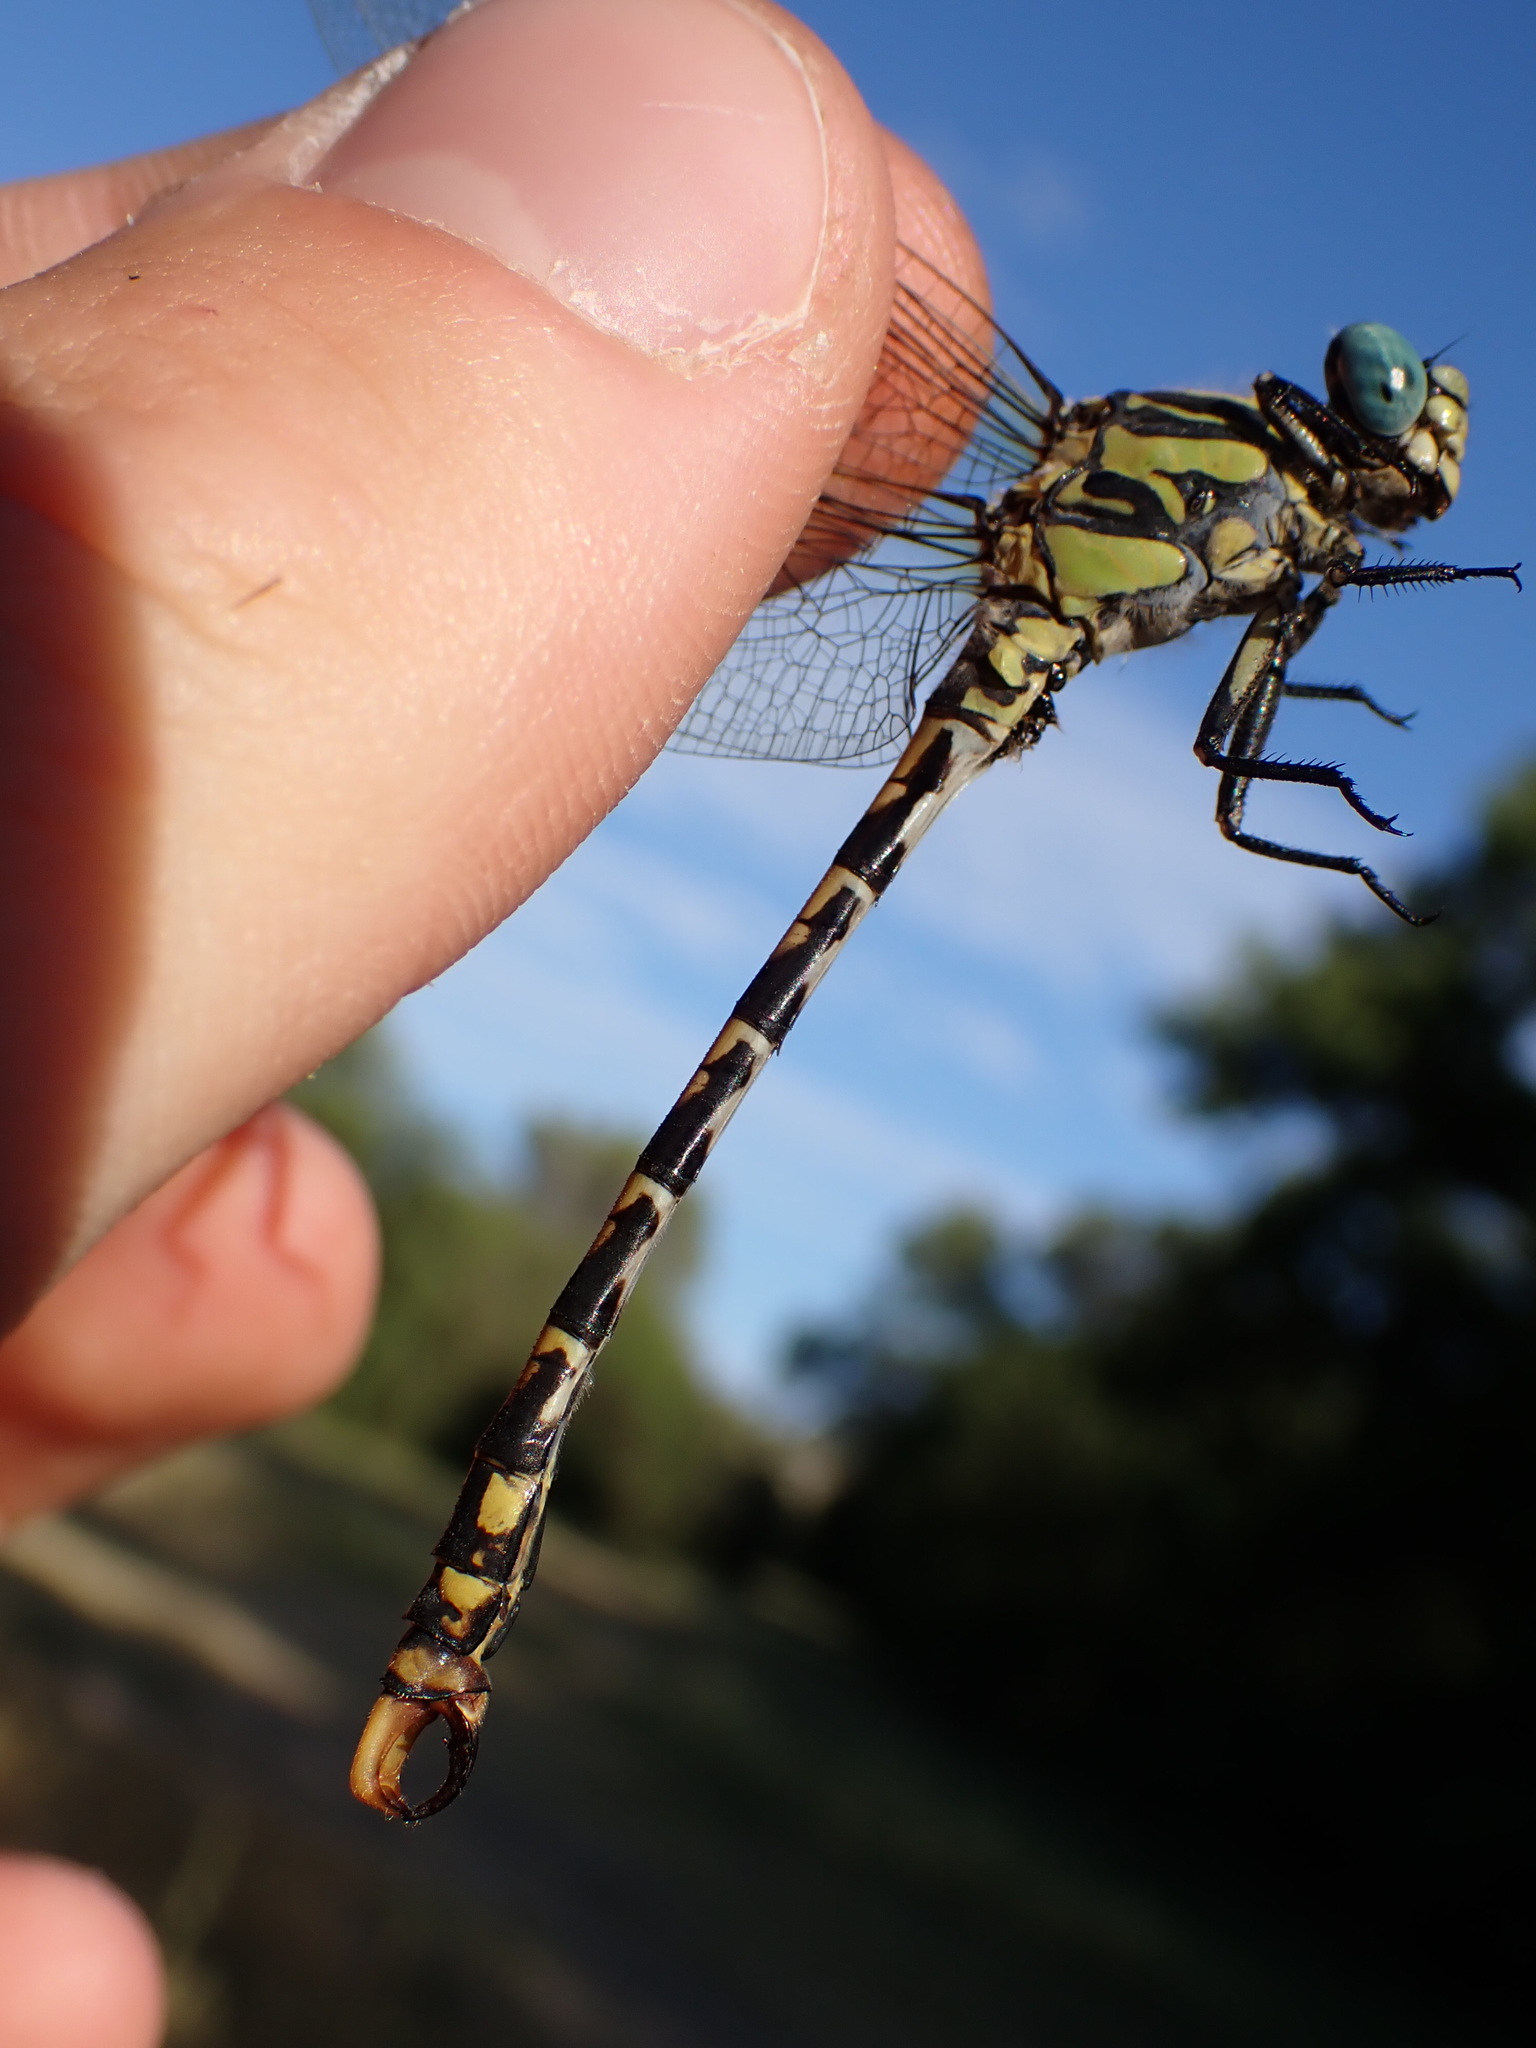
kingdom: Animalia
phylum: Arthropoda
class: Insecta
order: Odonata
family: Gomphidae
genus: Onychogomphus
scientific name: Onychogomphus uncatus
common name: Large pincertail
